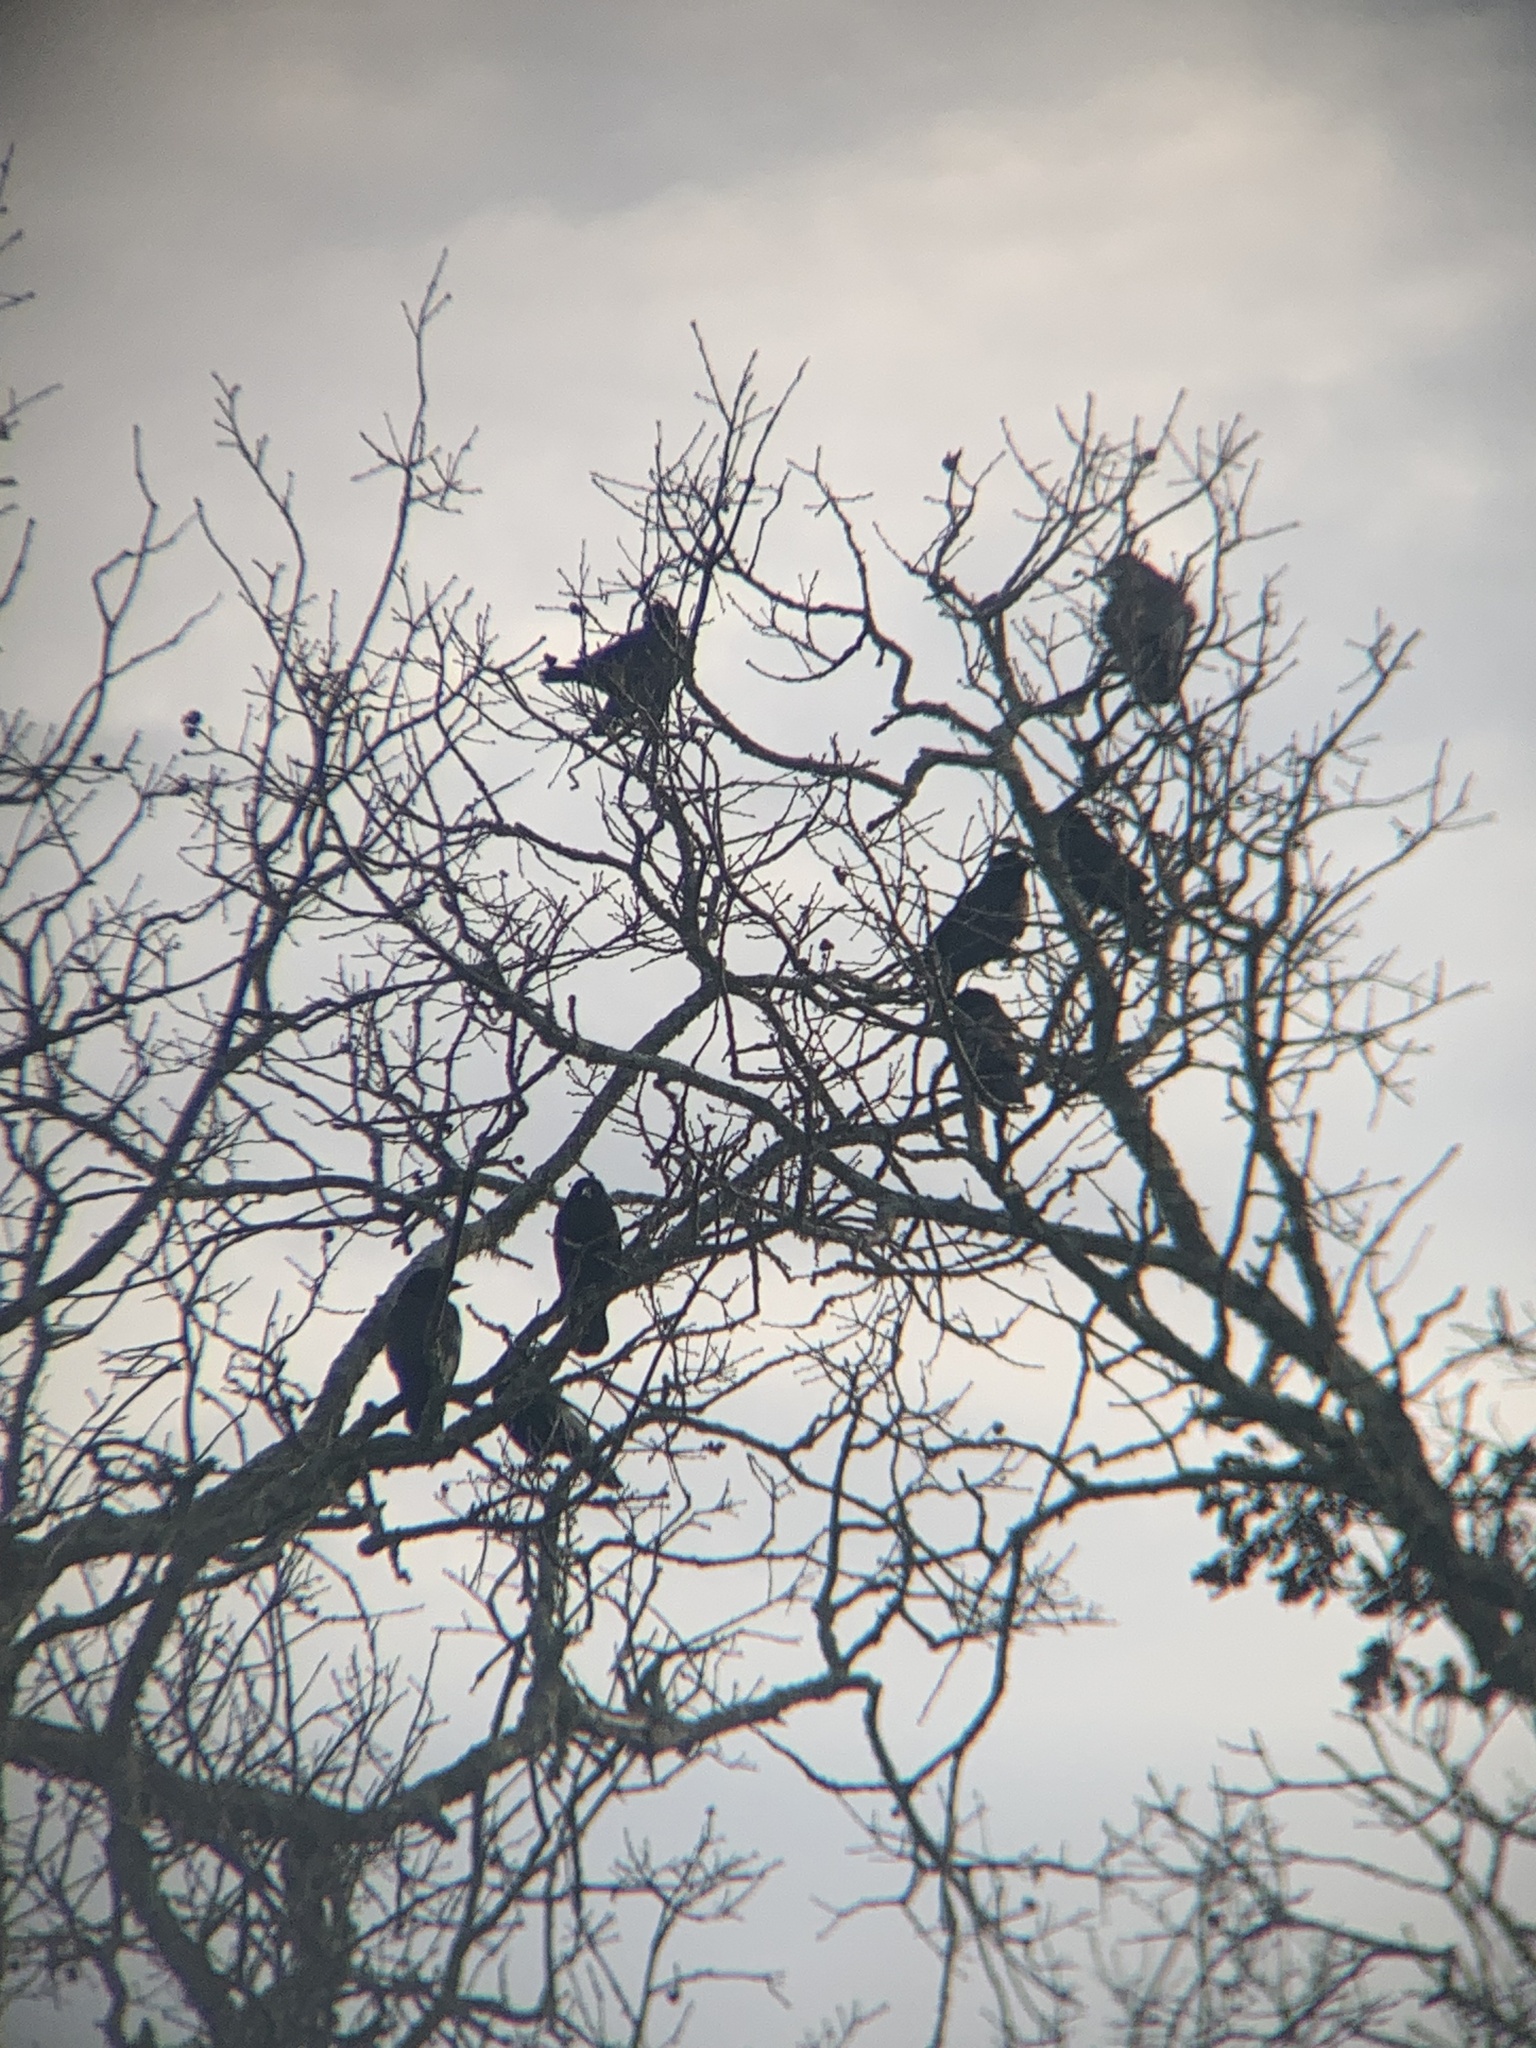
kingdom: Animalia
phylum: Chordata
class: Aves
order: Passeriformes
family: Corvidae
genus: Corvus
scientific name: Corvus brachyrhynchos
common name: American crow
